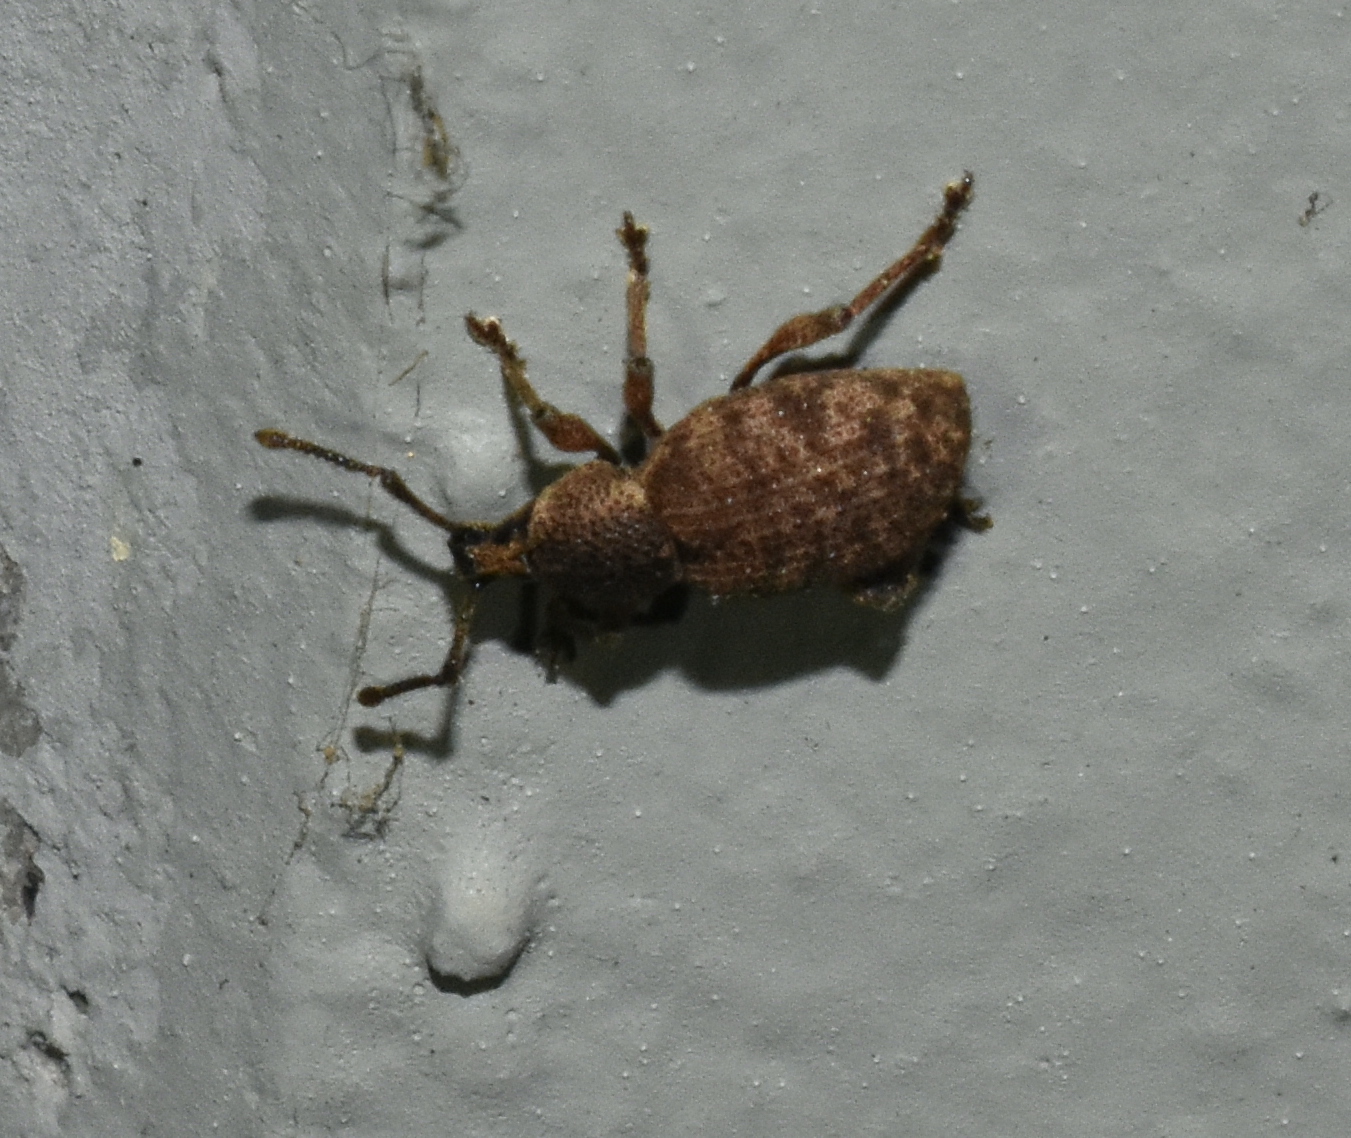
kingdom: Animalia
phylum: Arthropoda
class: Insecta
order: Coleoptera
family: Curculionidae
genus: Otiorhynchus
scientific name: Otiorhynchus singularis
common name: Clay-coloured weevil
